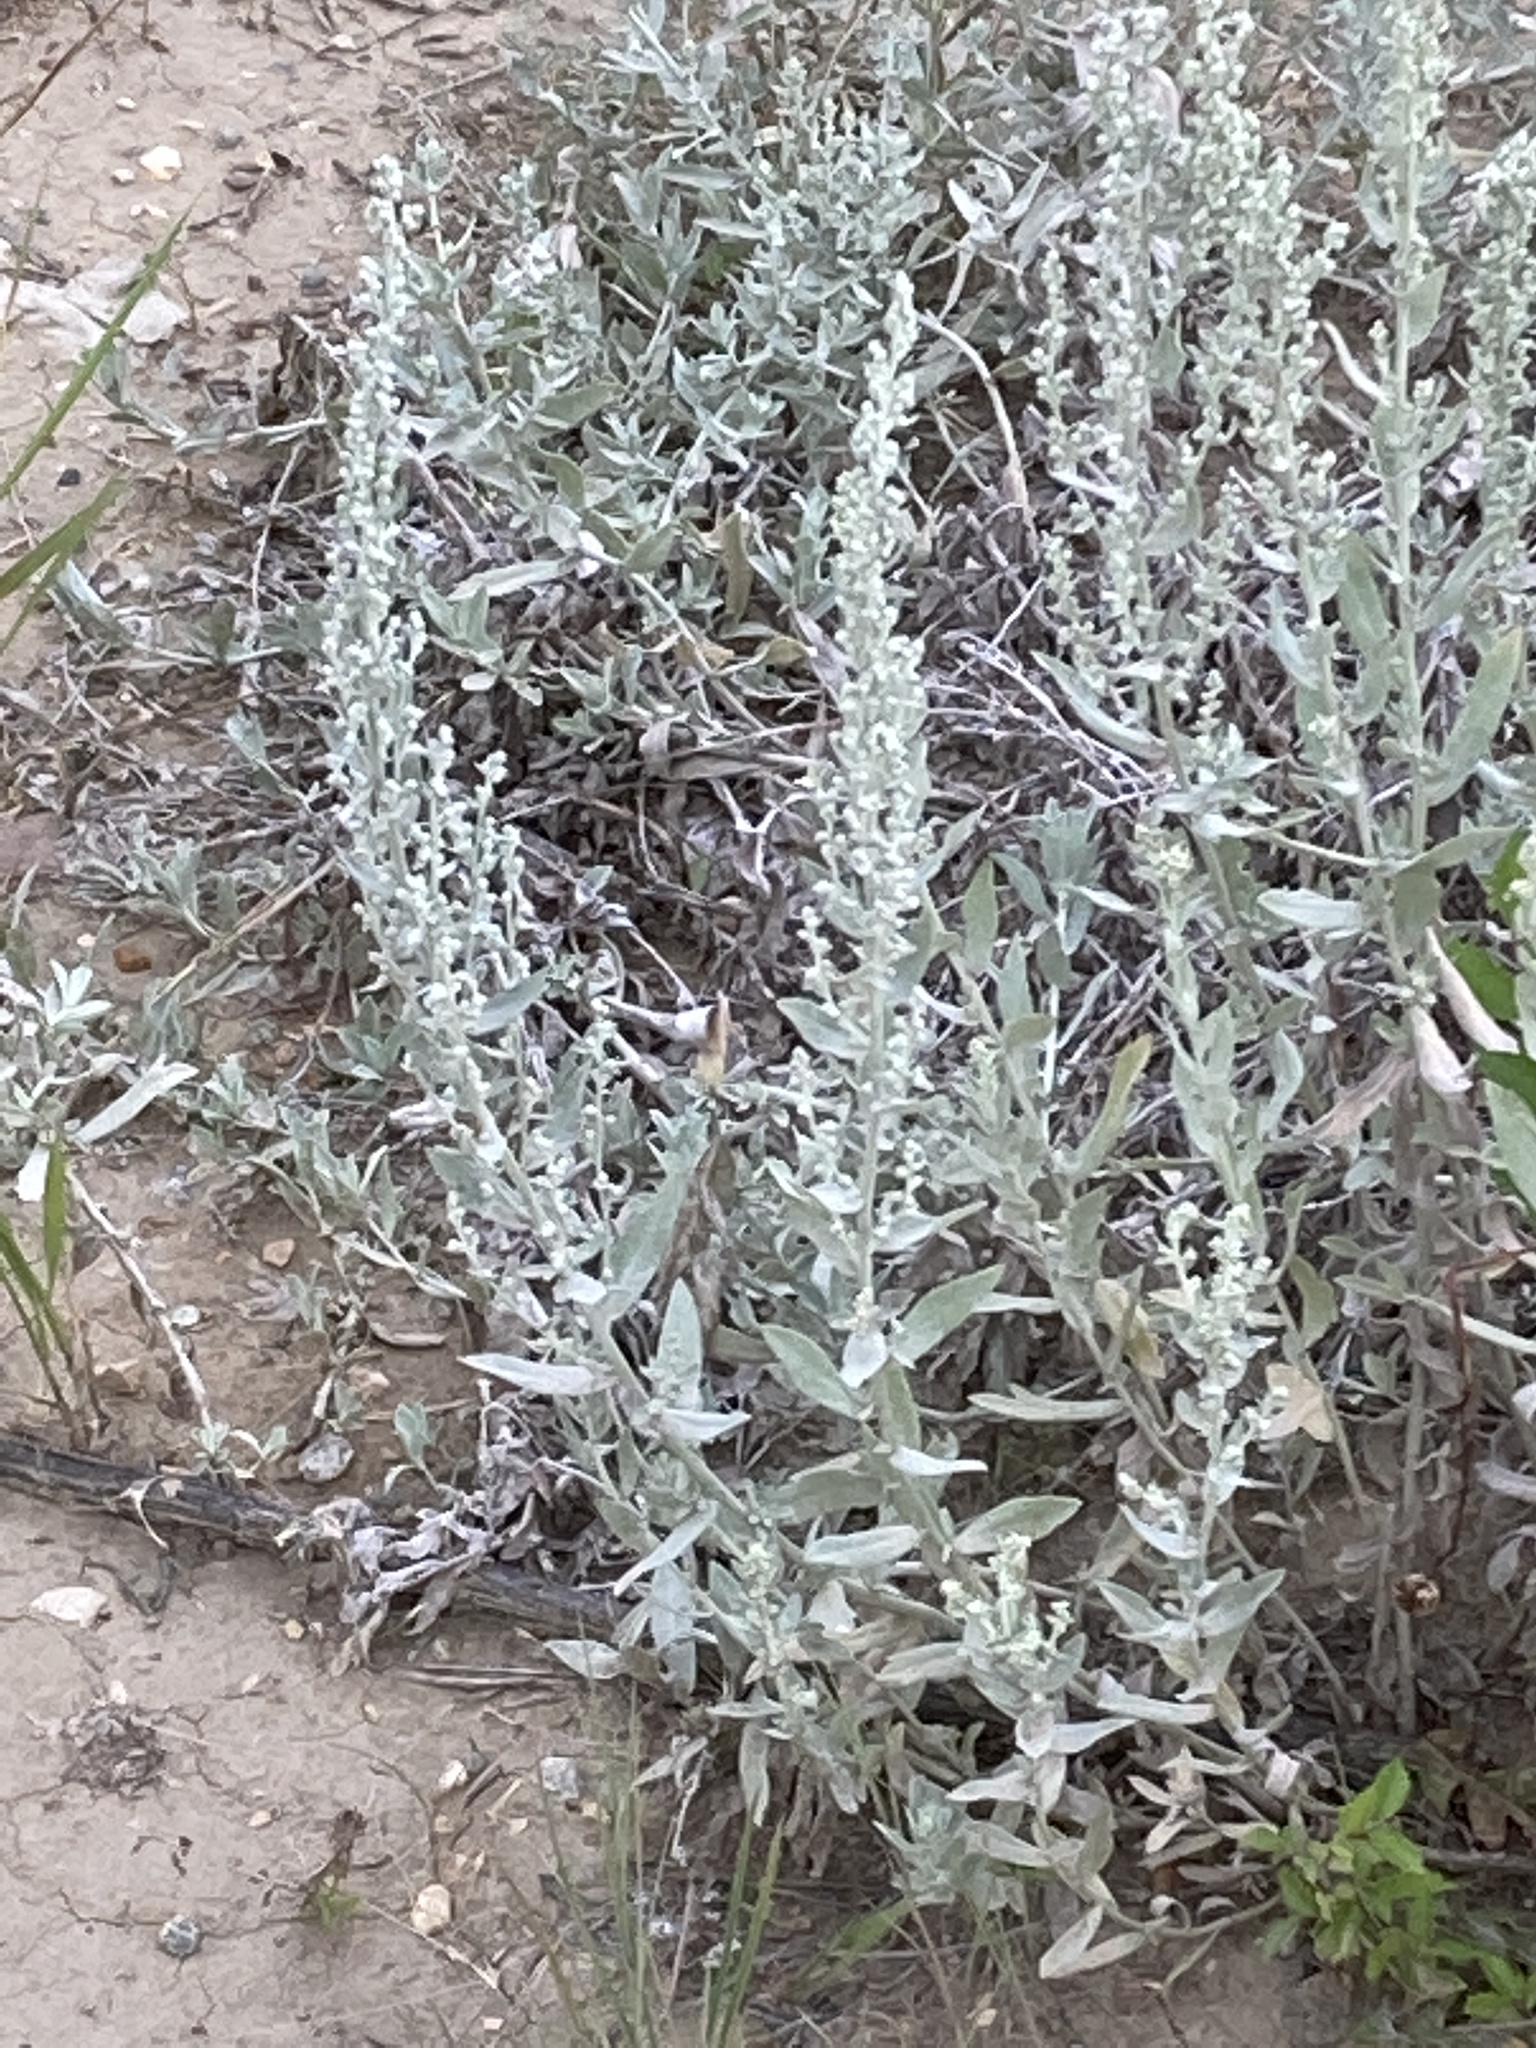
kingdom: Plantae
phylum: Tracheophyta
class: Magnoliopsida
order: Asterales
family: Asteraceae
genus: Artemisia
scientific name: Artemisia ludoviciana
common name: Western mugwort
